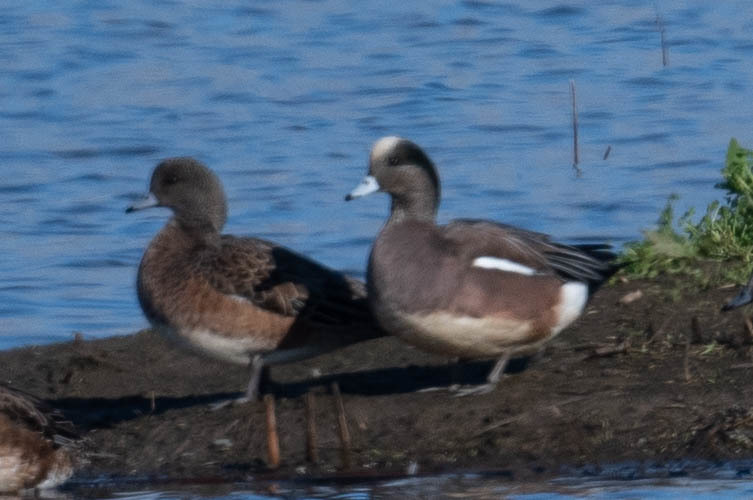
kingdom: Animalia
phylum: Chordata
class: Aves
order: Anseriformes
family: Anatidae
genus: Mareca
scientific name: Mareca americana
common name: American wigeon
